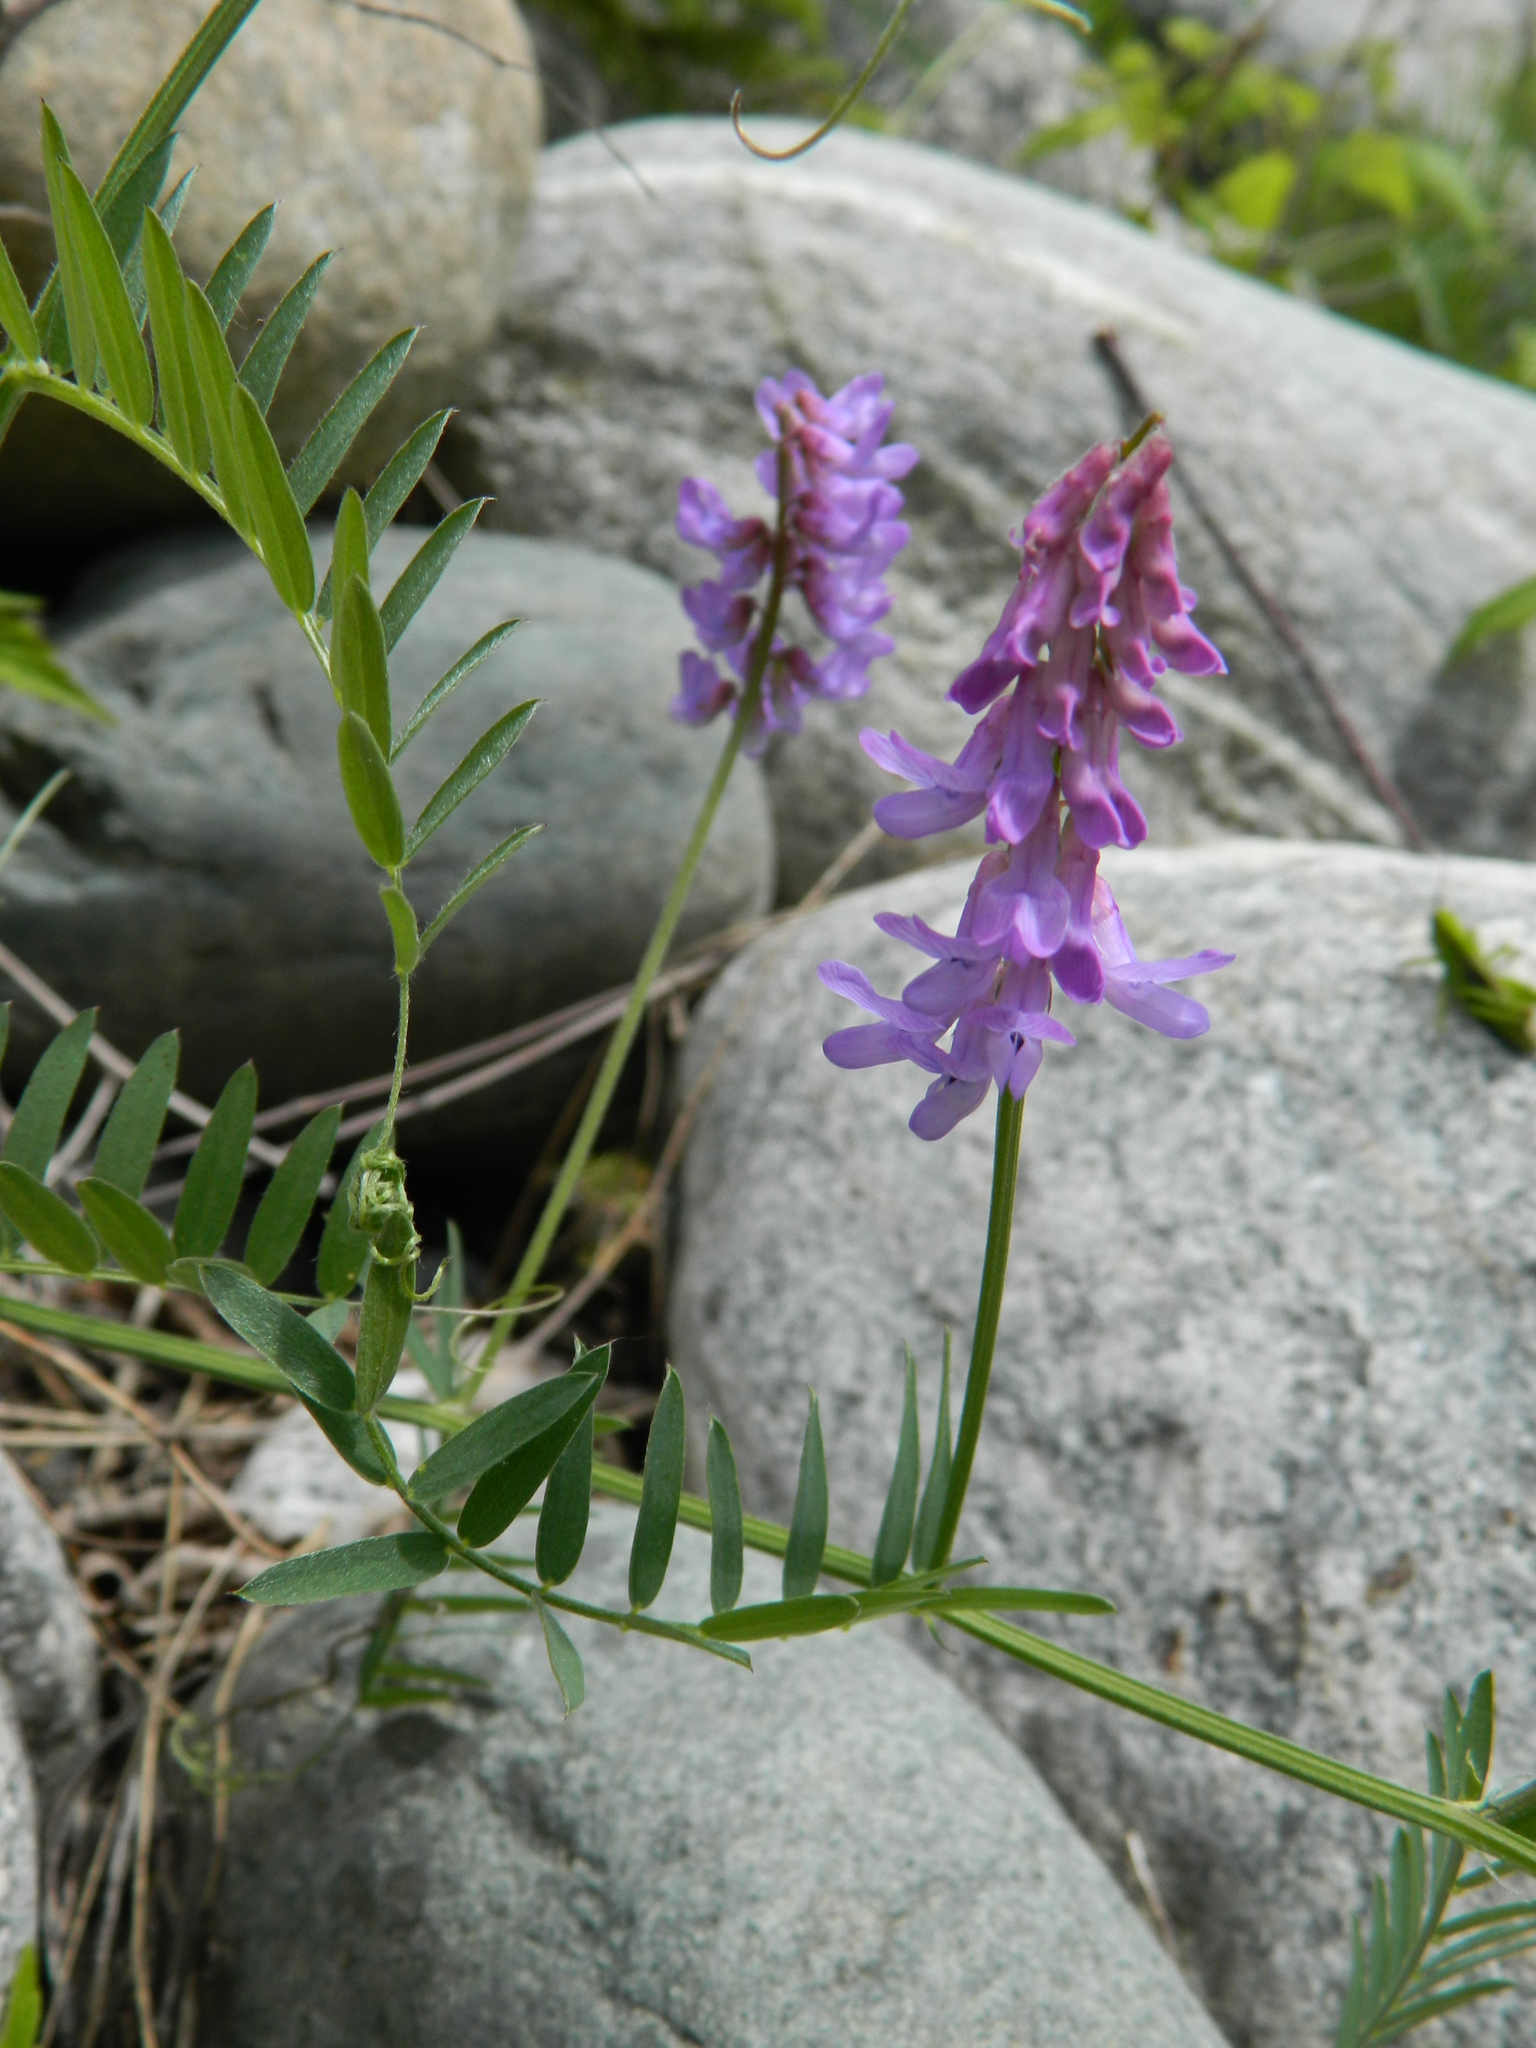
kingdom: Plantae
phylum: Tracheophyta
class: Magnoliopsida
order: Fabales
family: Fabaceae
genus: Vicia
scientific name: Vicia cracca
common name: Bird vetch
